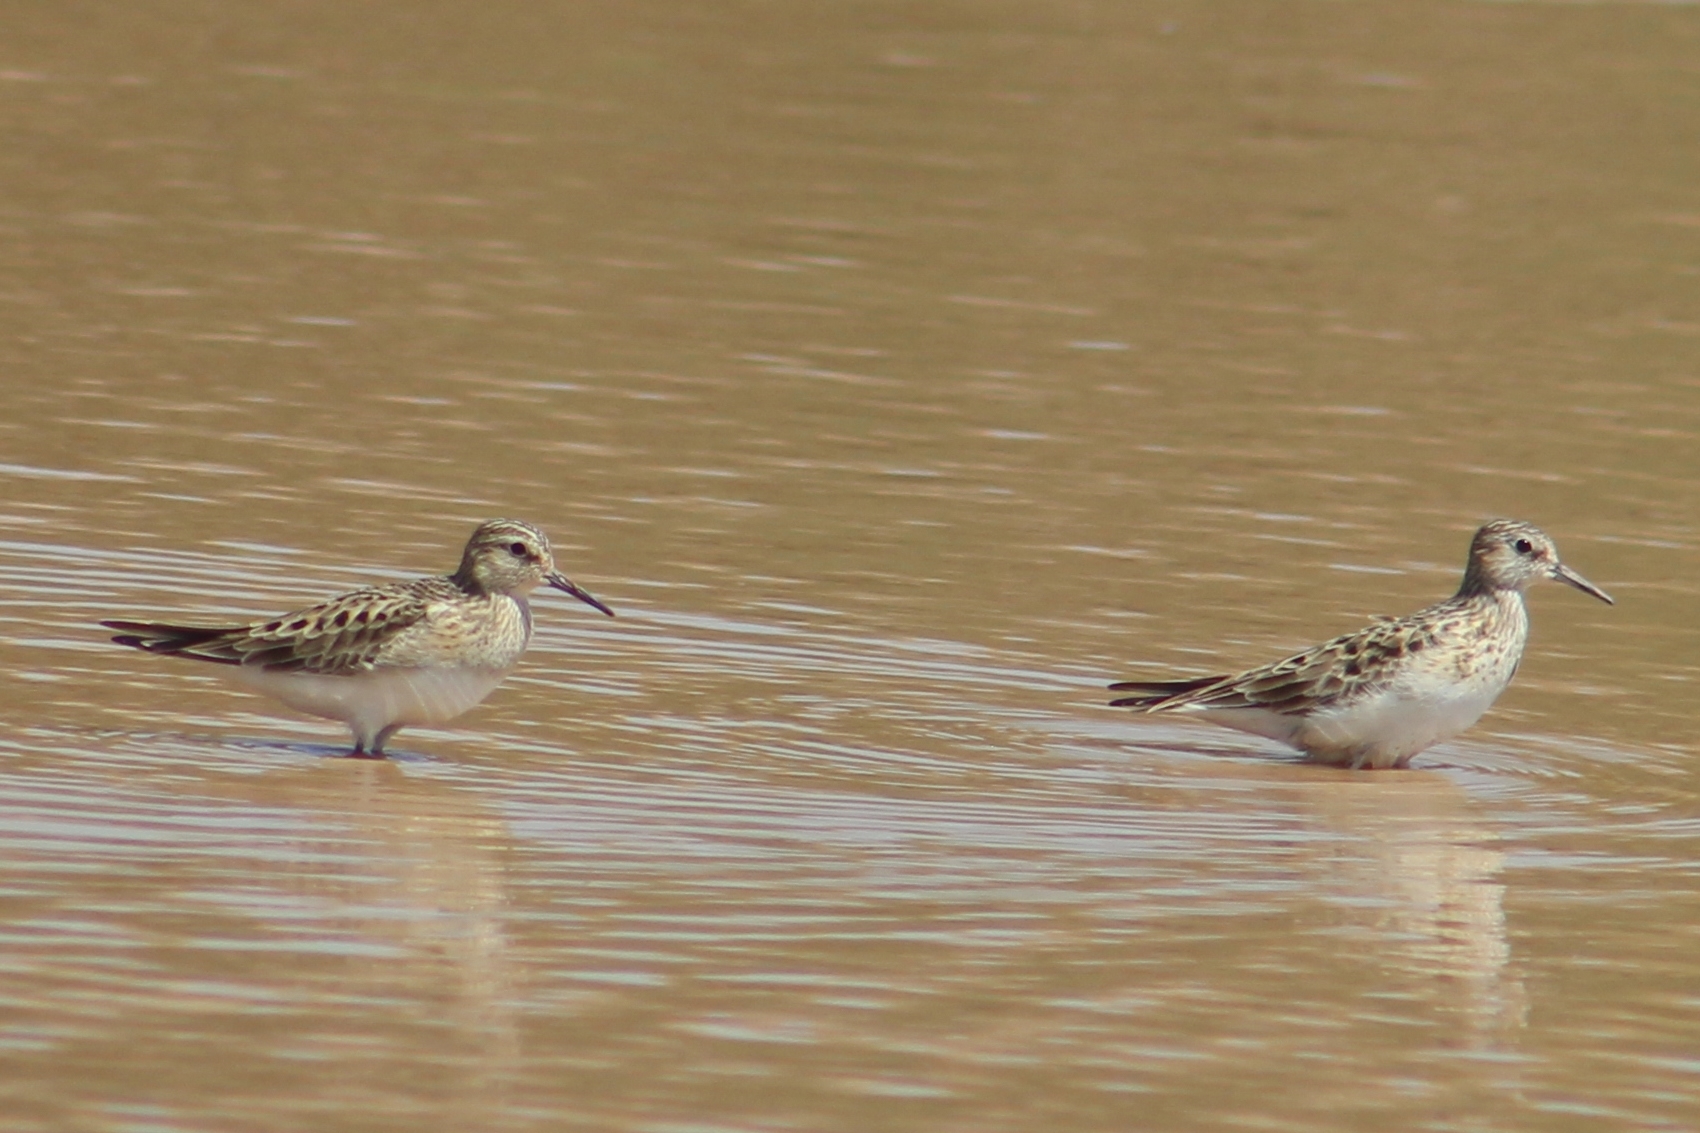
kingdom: Animalia
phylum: Chordata
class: Aves
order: Charadriiformes
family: Scolopacidae
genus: Calidris
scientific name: Calidris bairdii
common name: Baird's sandpiper
